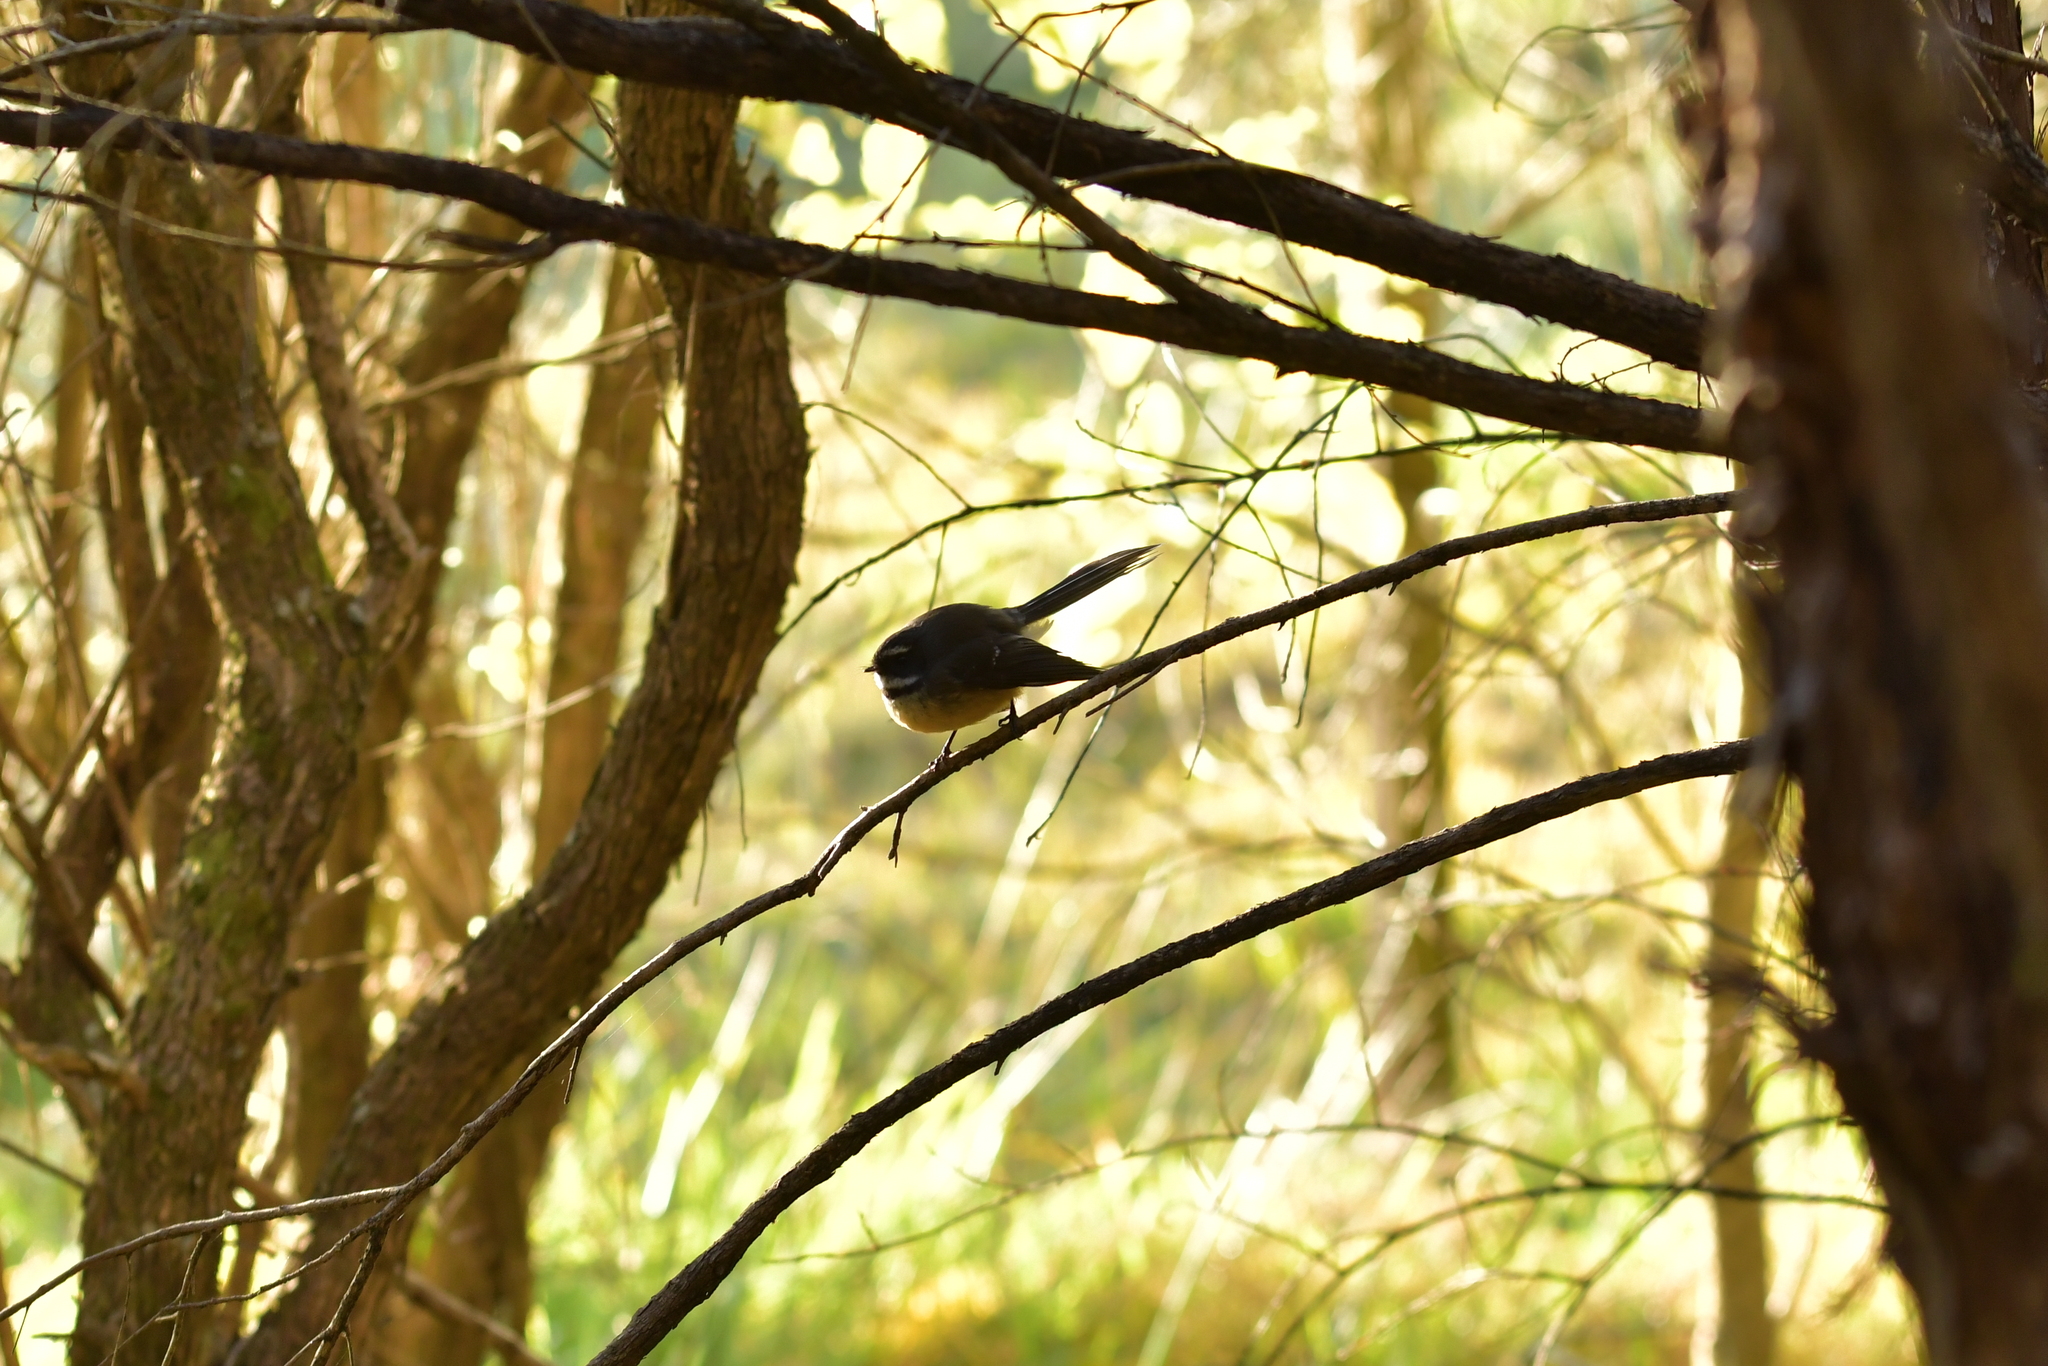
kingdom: Animalia
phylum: Chordata
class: Aves
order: Passeriformes
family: Rhipiduridae
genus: Rhipidura
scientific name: Rhipidura fuliginosa
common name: New zealand fantail
